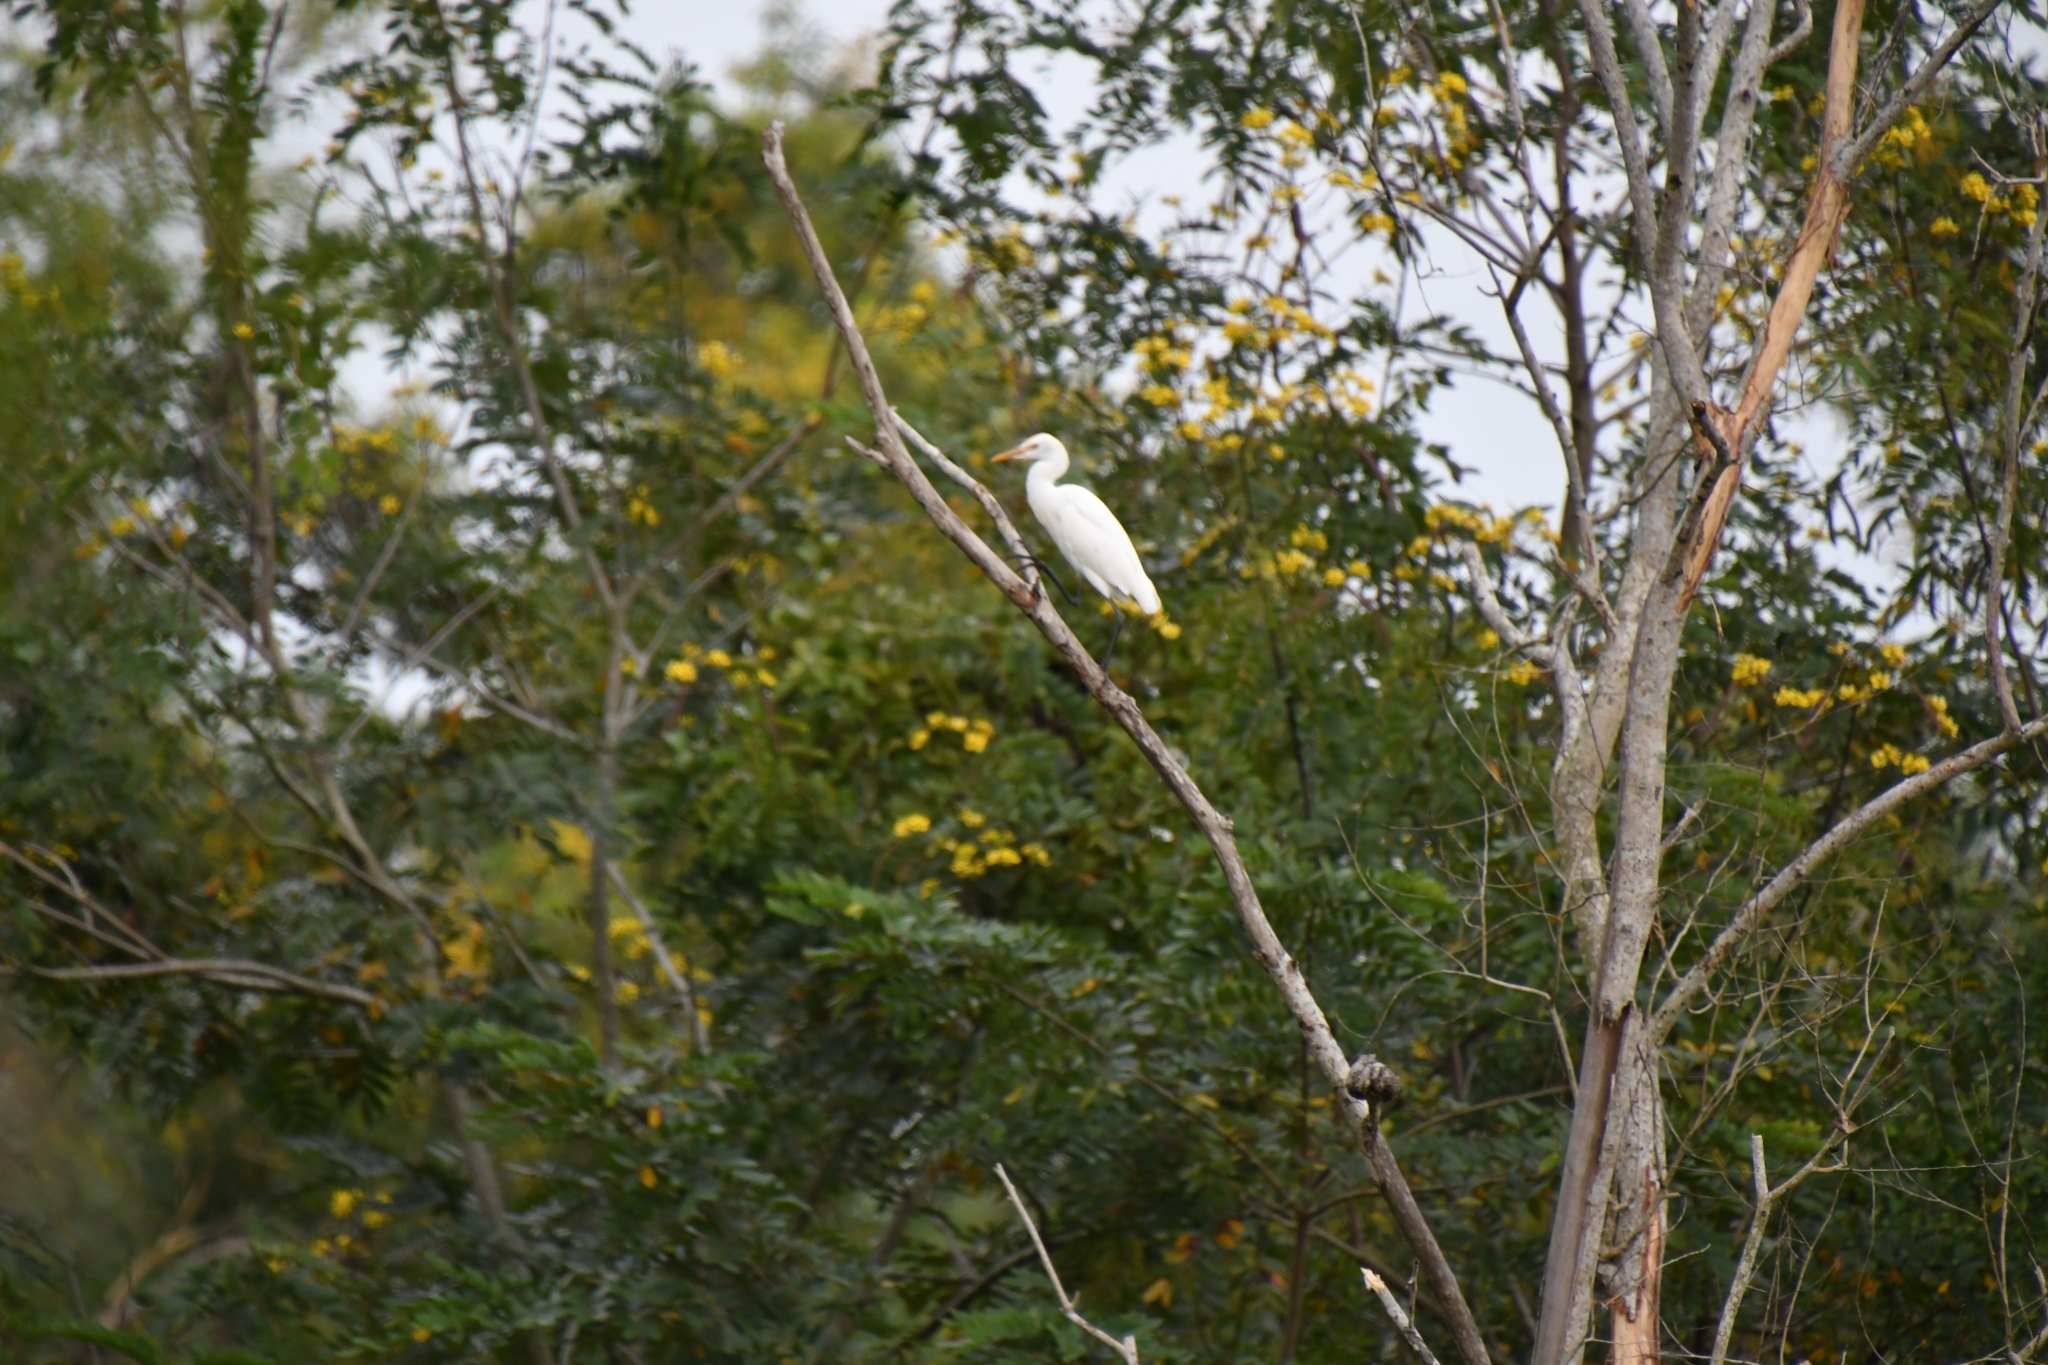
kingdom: Animalia
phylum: Chordata
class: Aves
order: Pelecaniformes
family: Ardeidae
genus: Bubulcus
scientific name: Bubulcus coromandus
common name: Eastern cattle egret
